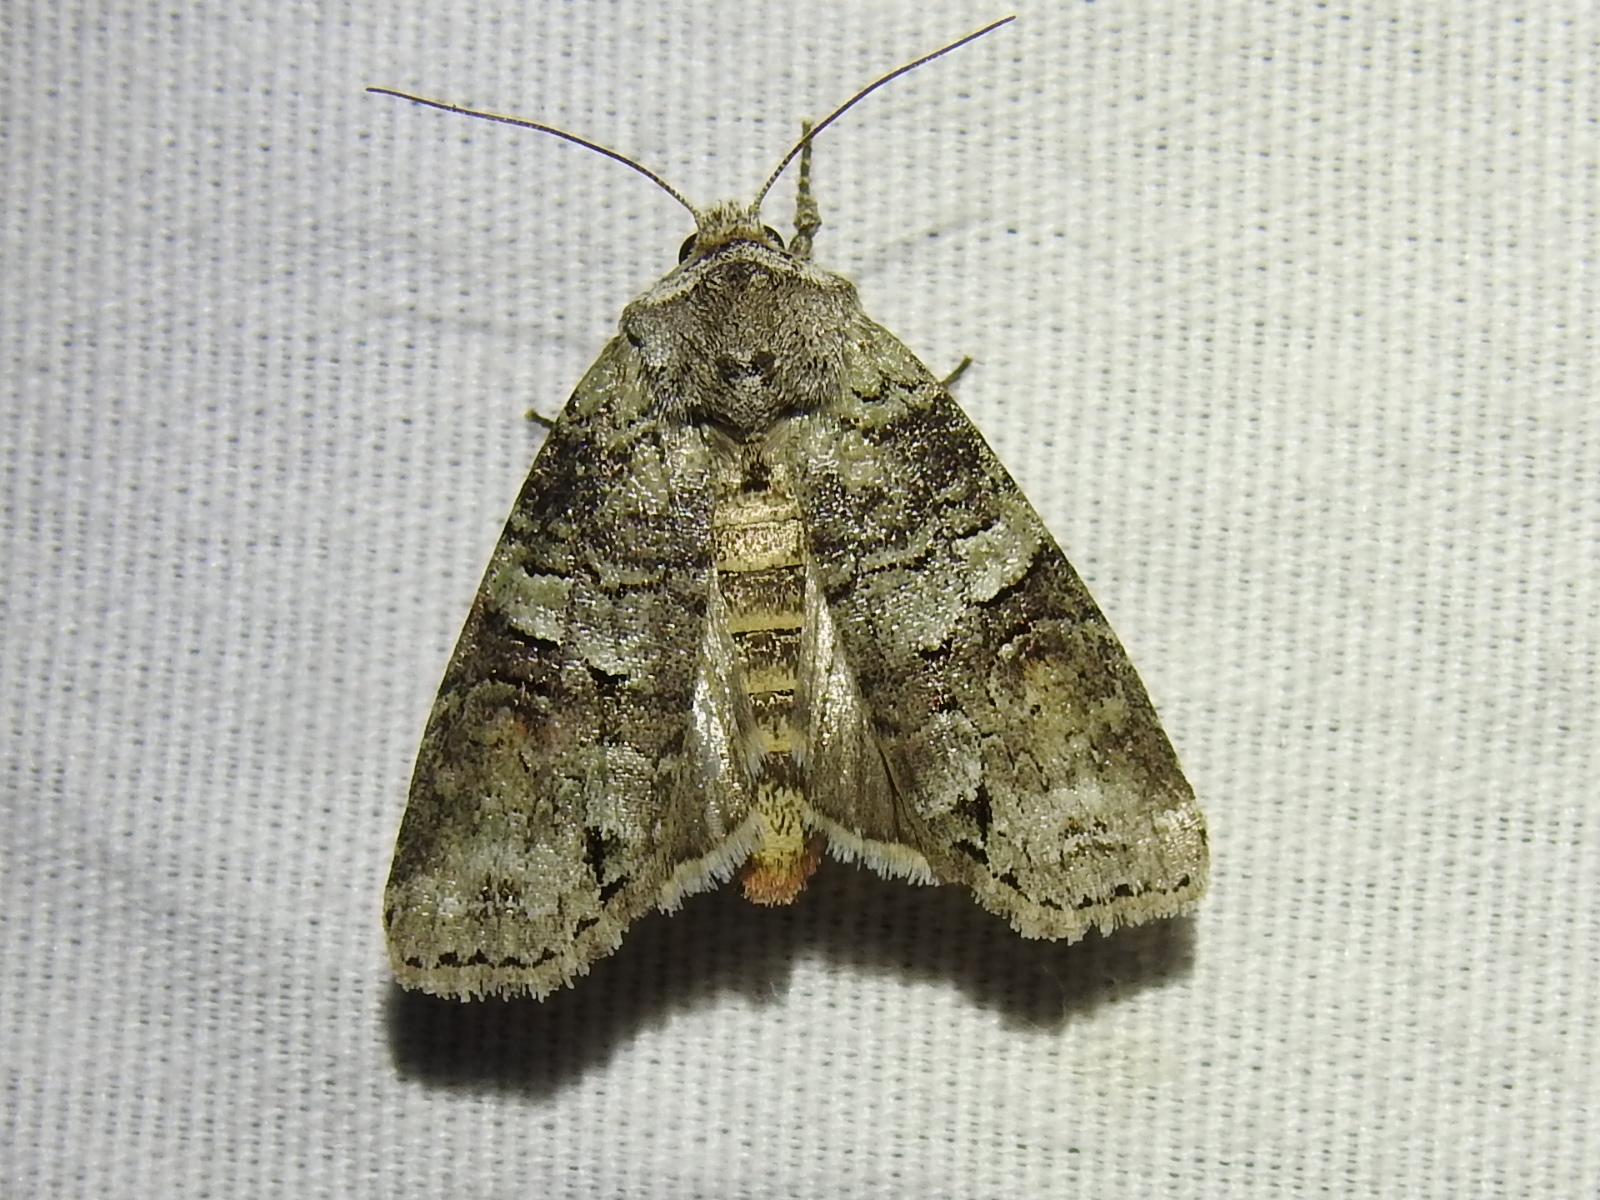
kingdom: Animalia
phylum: Arthropoda
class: Insecta
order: Lepidoptera
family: Noctuidae
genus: Egira
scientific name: Egira alternans
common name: Alternate woodling
